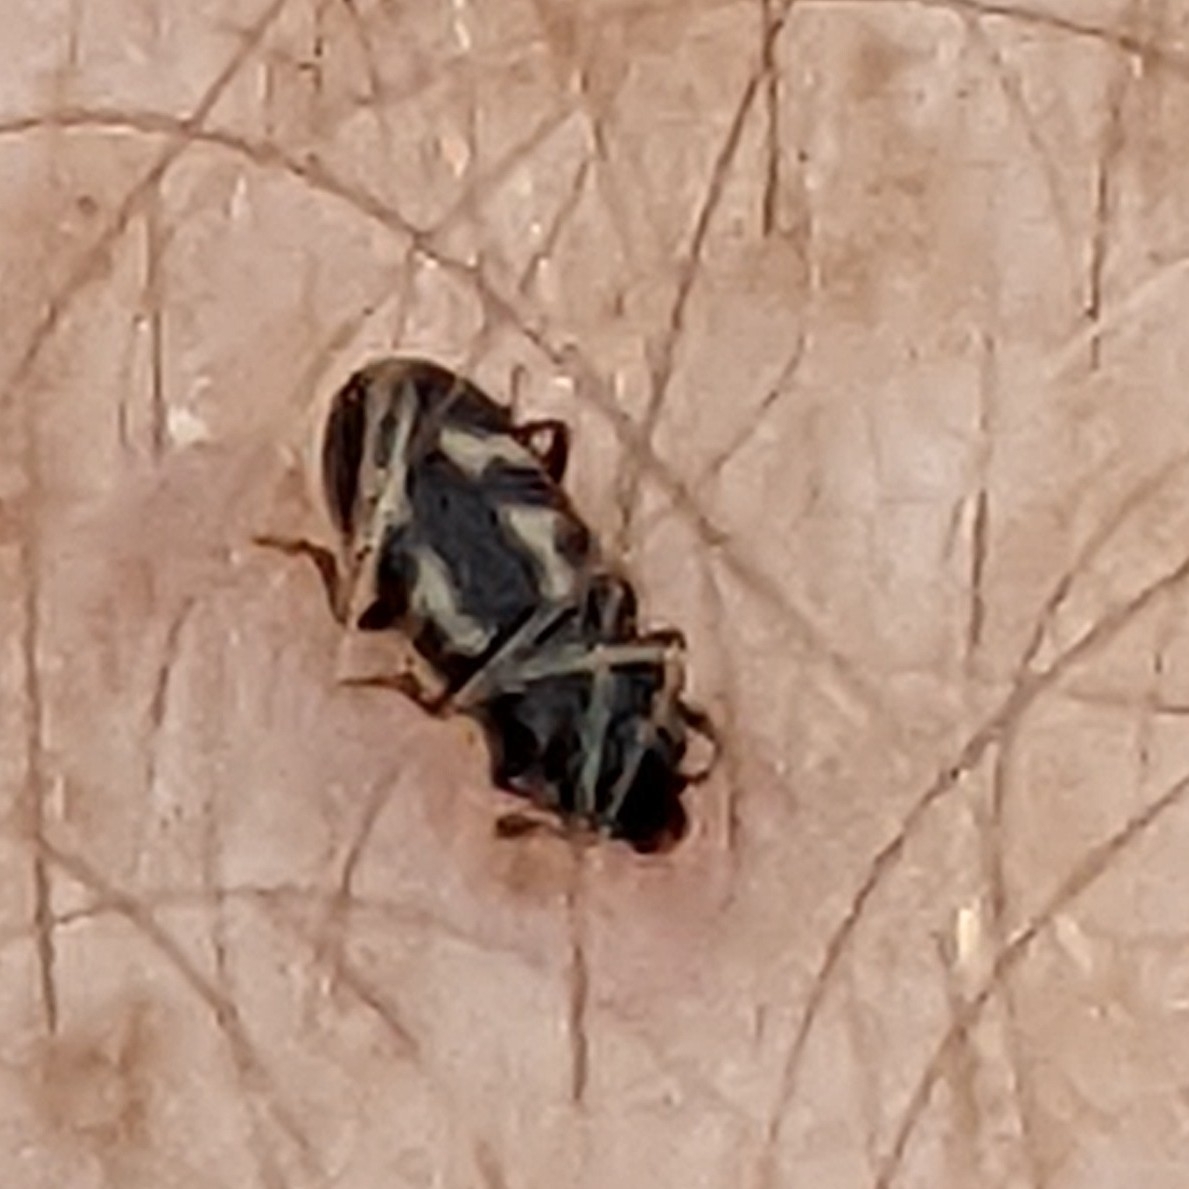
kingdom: Animalia
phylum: Arthropoda
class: Insecta
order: Coleoptera
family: Nitidulidae
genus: Glischrochilus
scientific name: Glischrochilus vittatus
